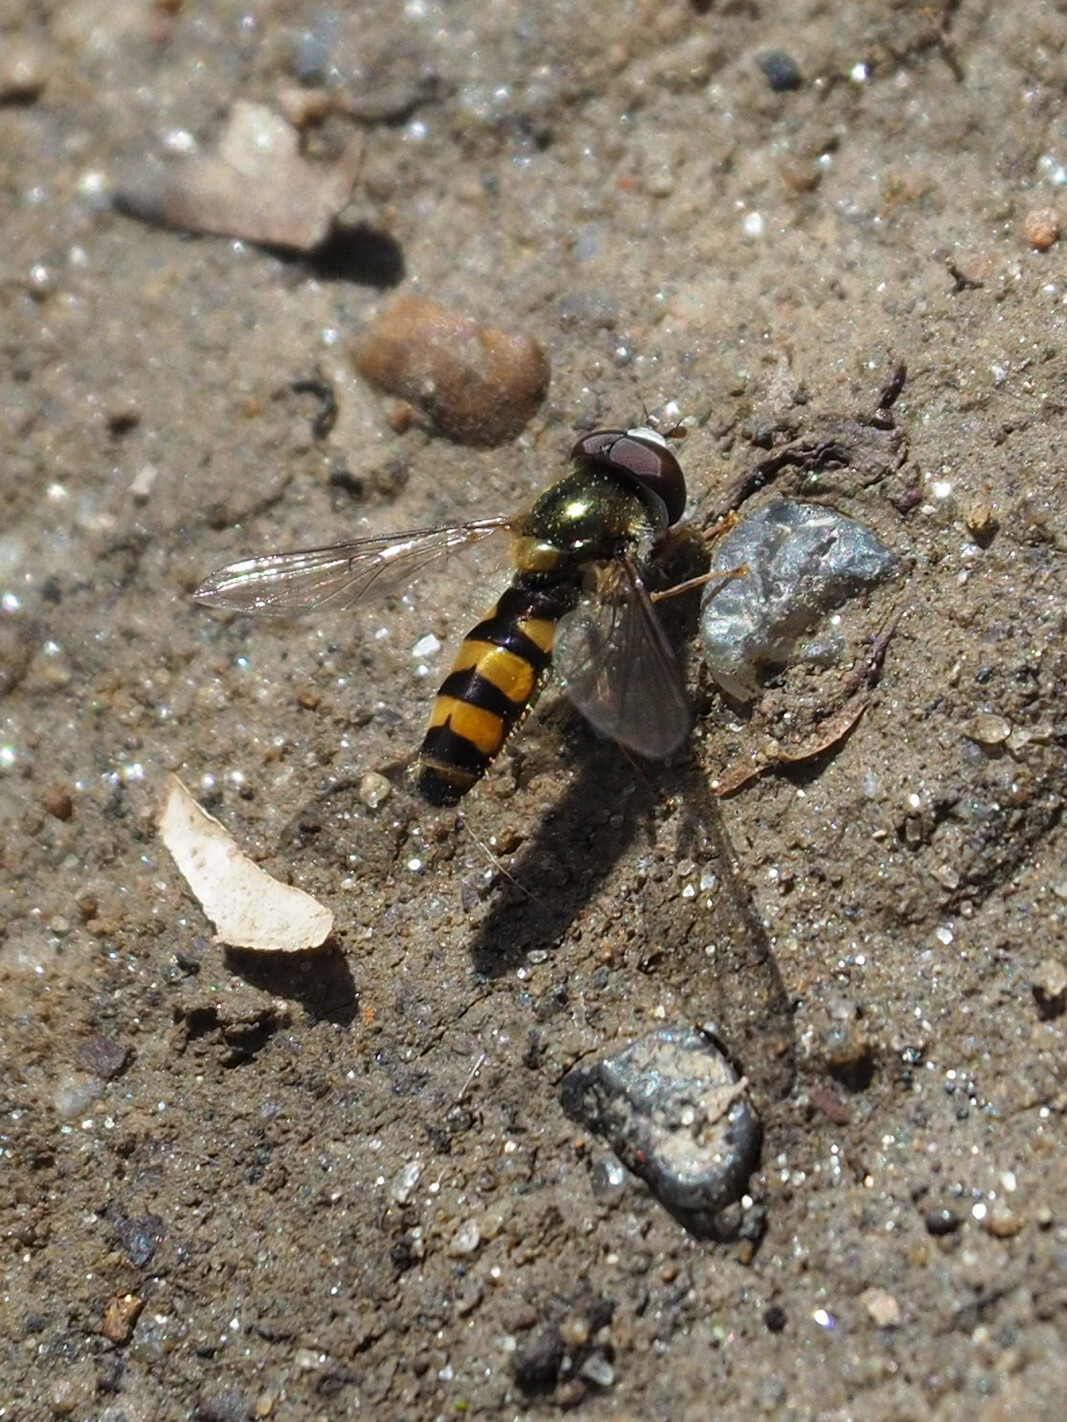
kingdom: Animalia
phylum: Arthropoda
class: Insecta
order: Diptera
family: Syrphidae
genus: Fagisyrphus
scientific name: Fagisyrphus cincta
